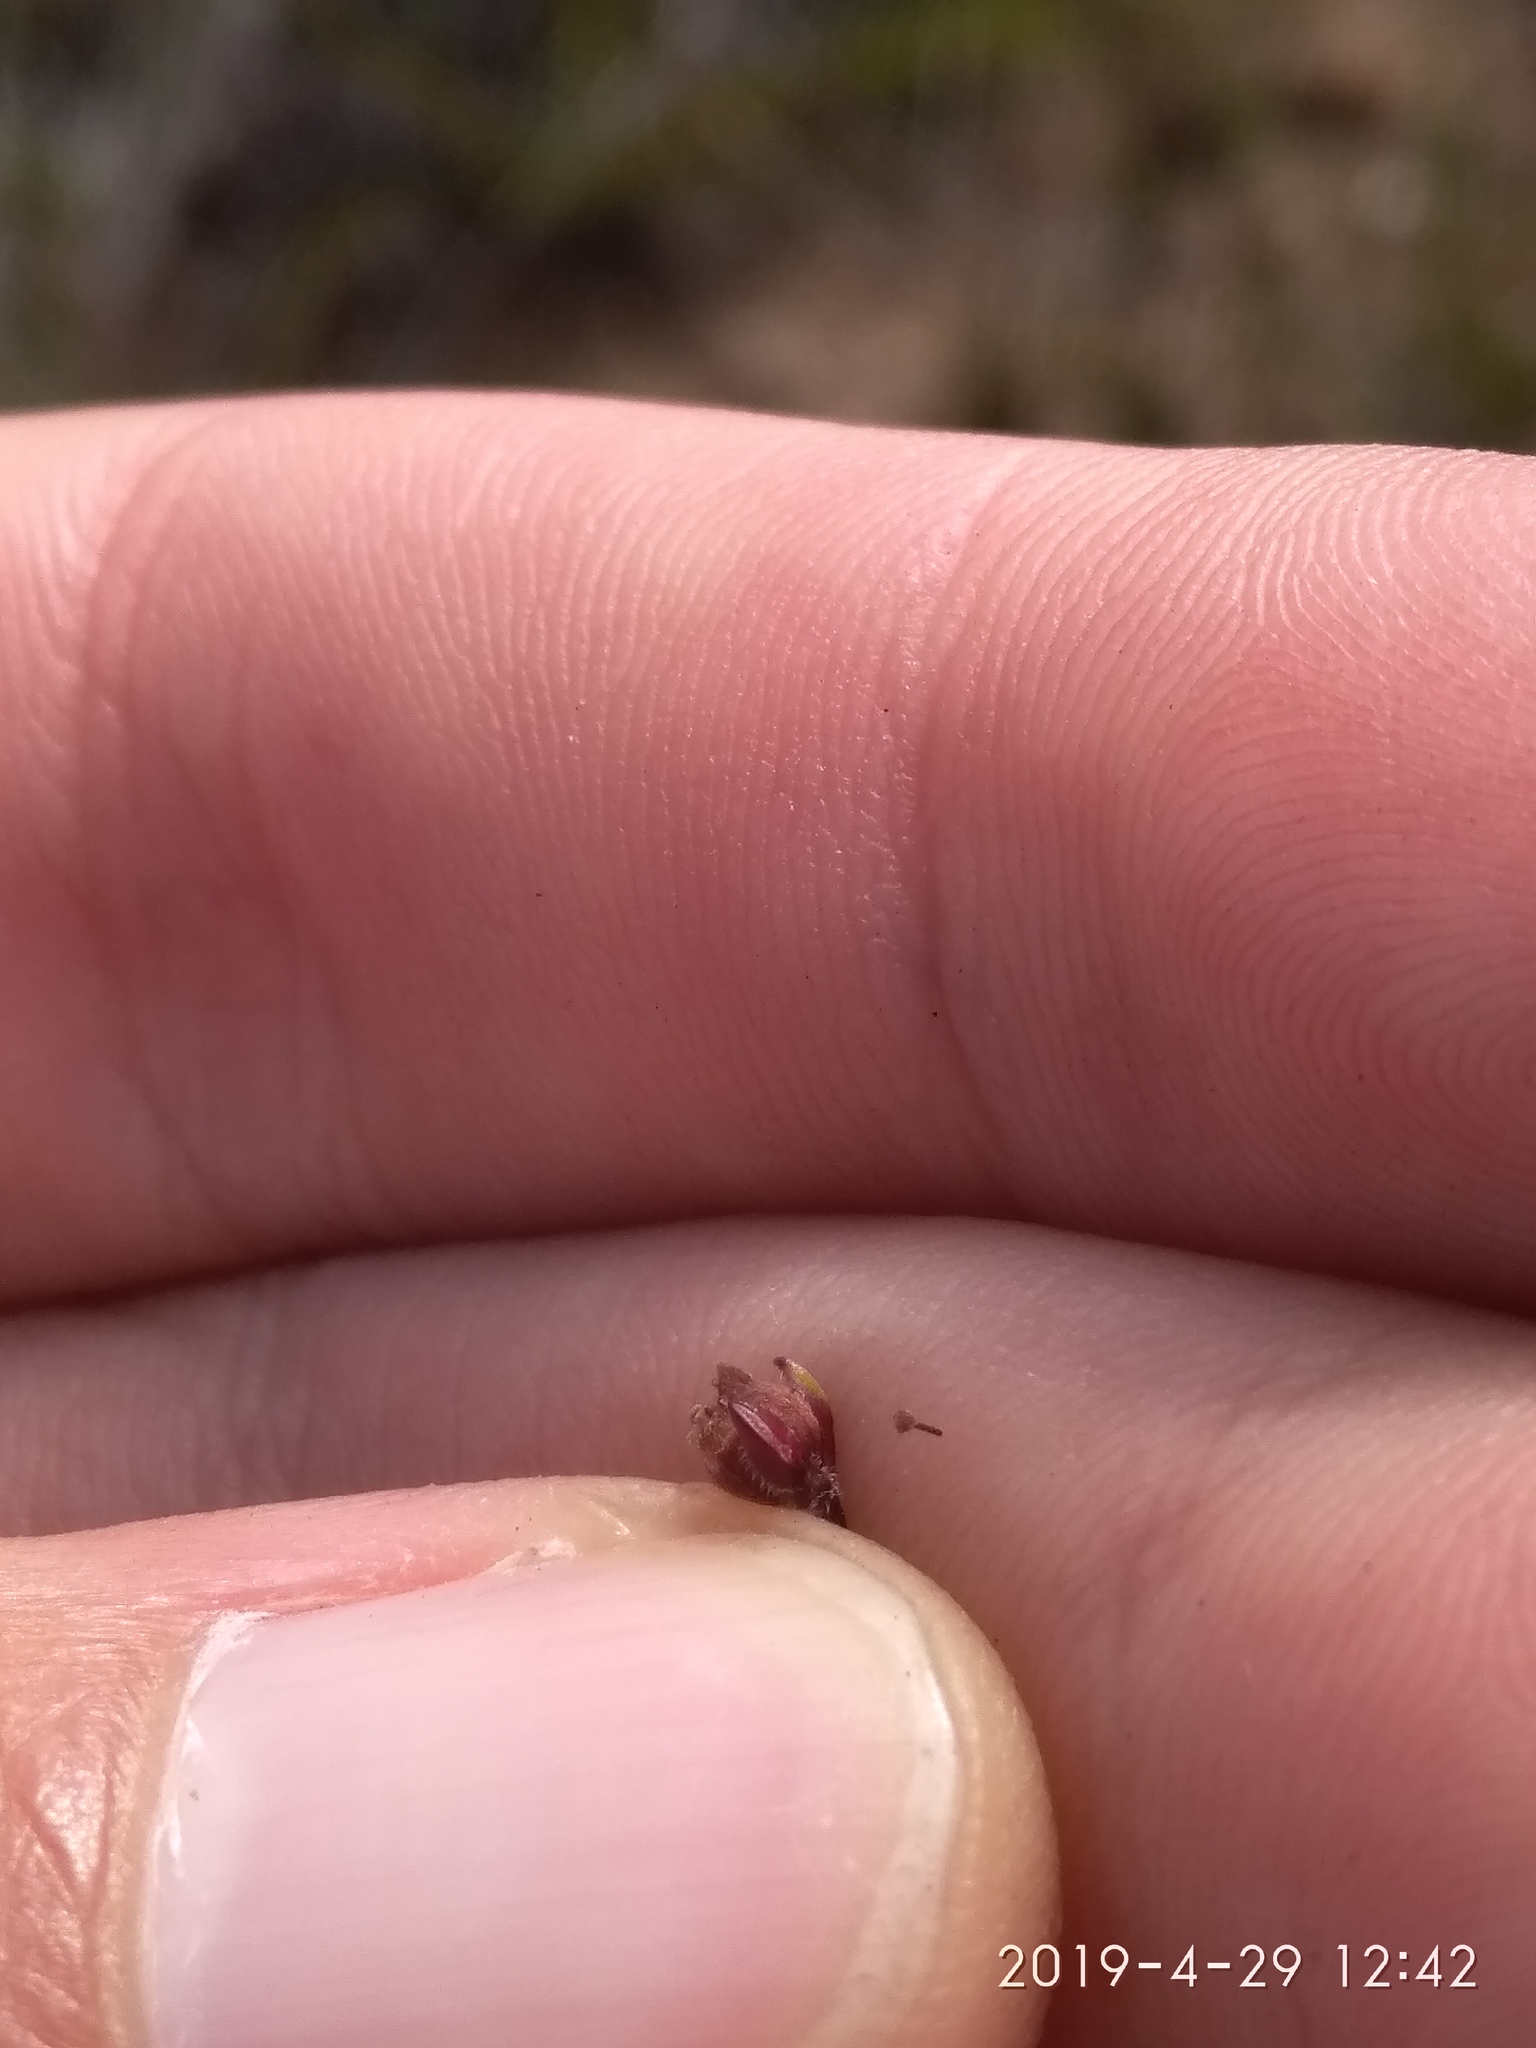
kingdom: Plantae
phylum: Tracheophyta
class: Magnoliopsida
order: Ericales
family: Ericaceae
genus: Erica
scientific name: Erica pulchella
